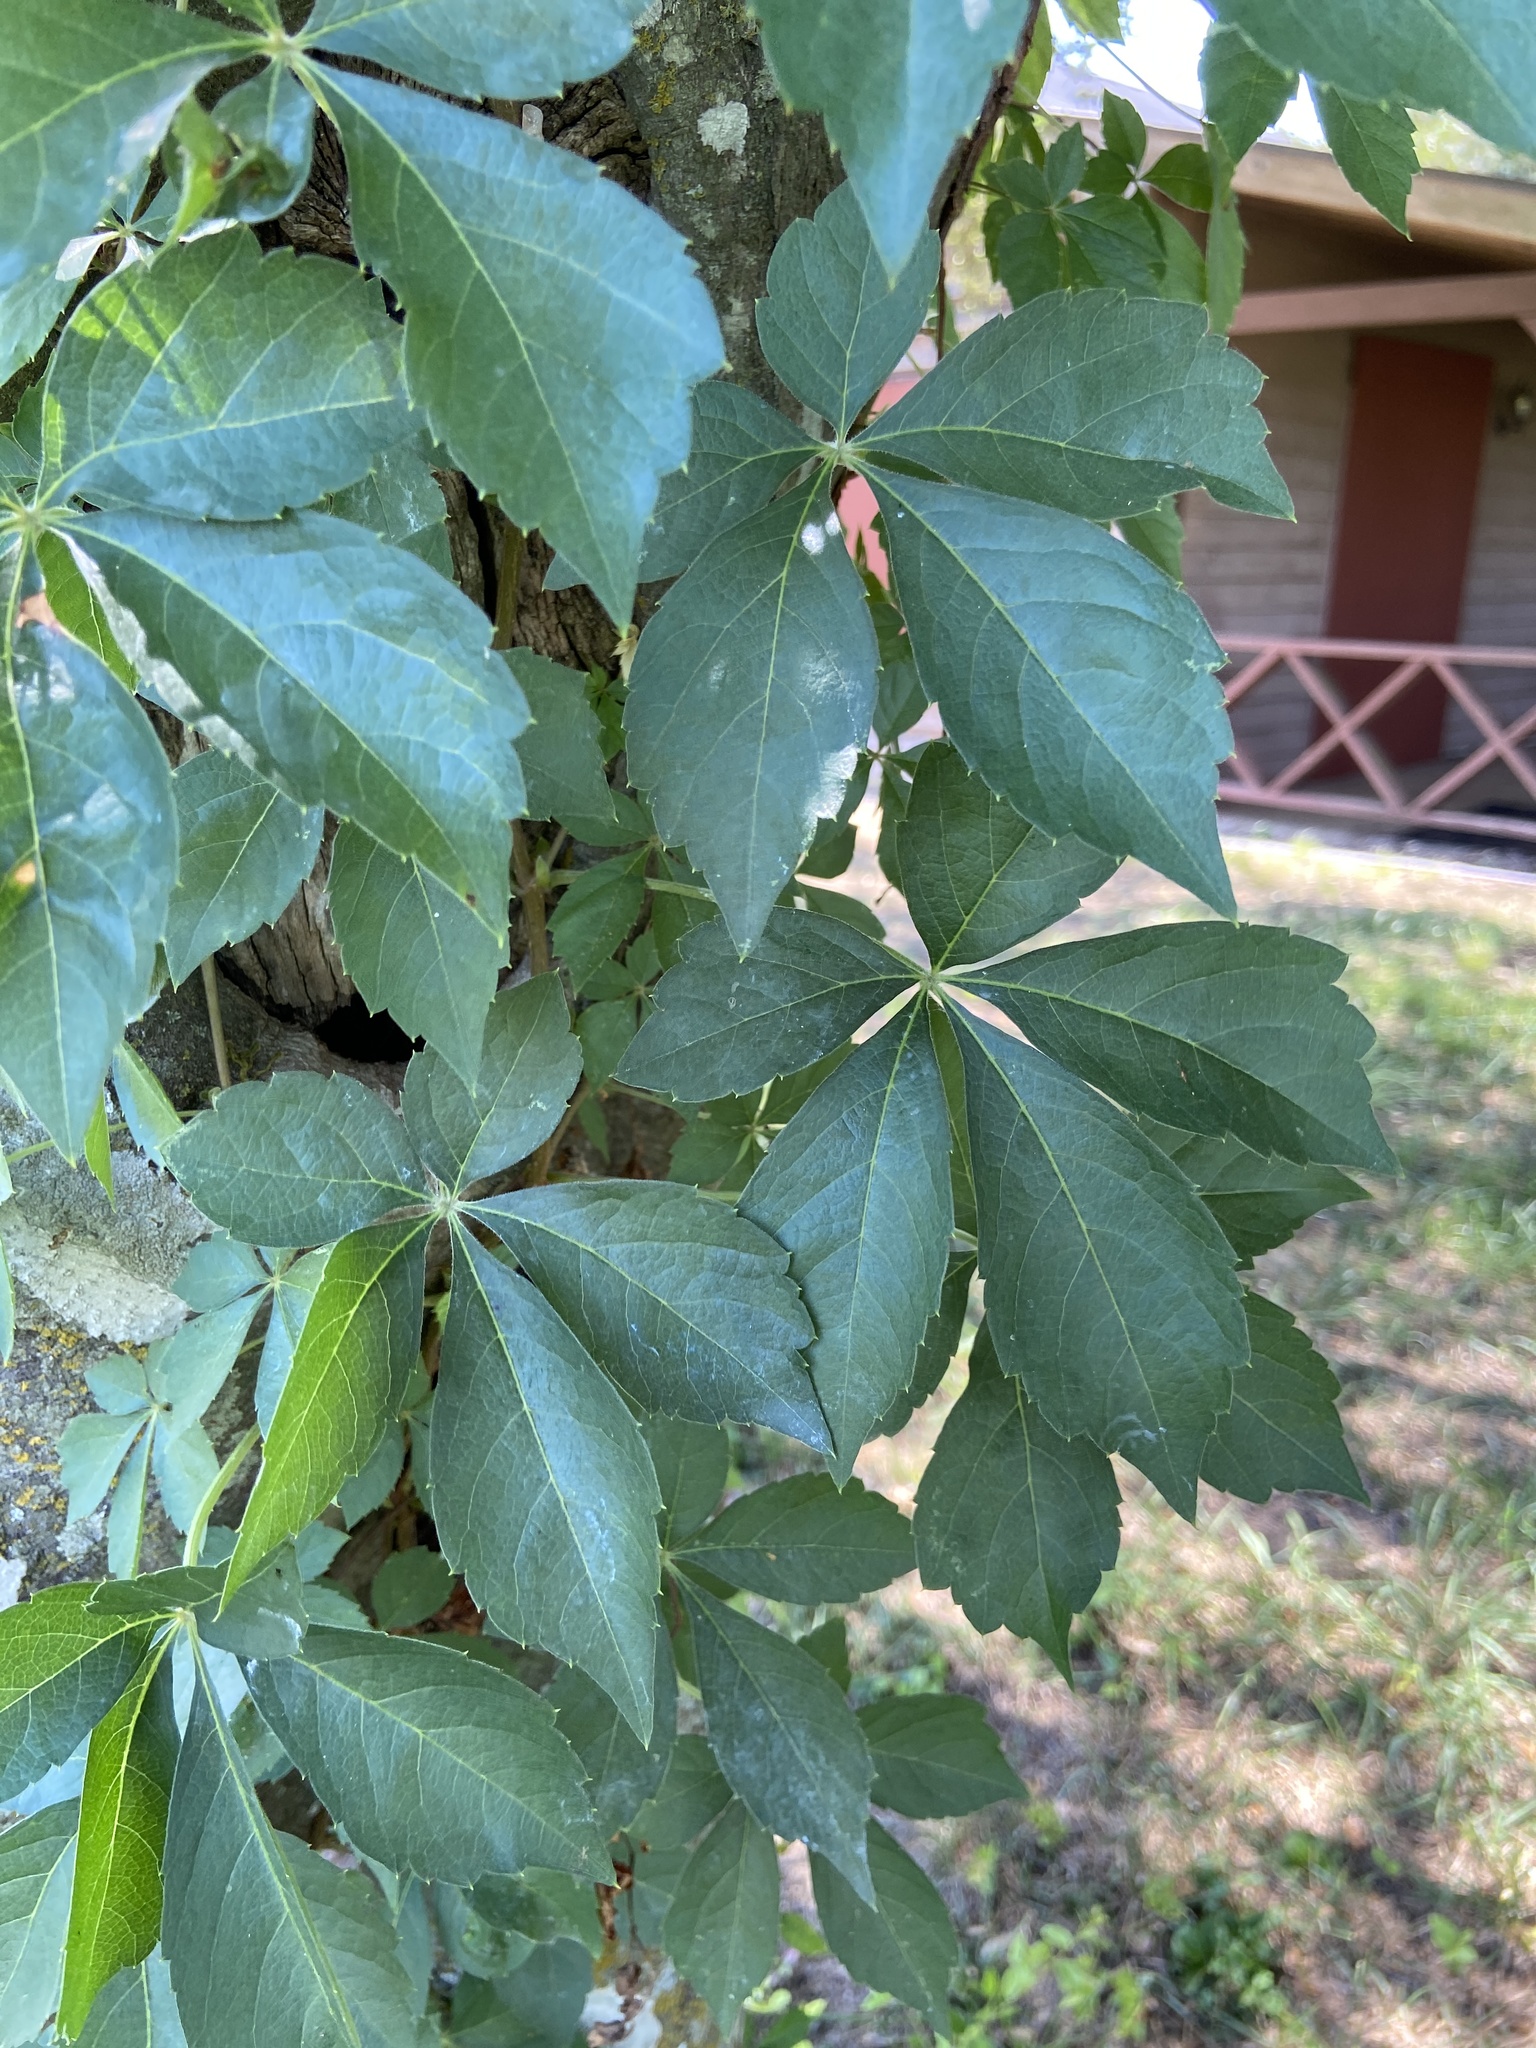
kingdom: Plantae
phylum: Tracheophyta
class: Magnoliopsida
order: Vitales
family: Vitaceae
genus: Parthenocissus
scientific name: Parthenocissus quinquefolia
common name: Virginia-creeper
